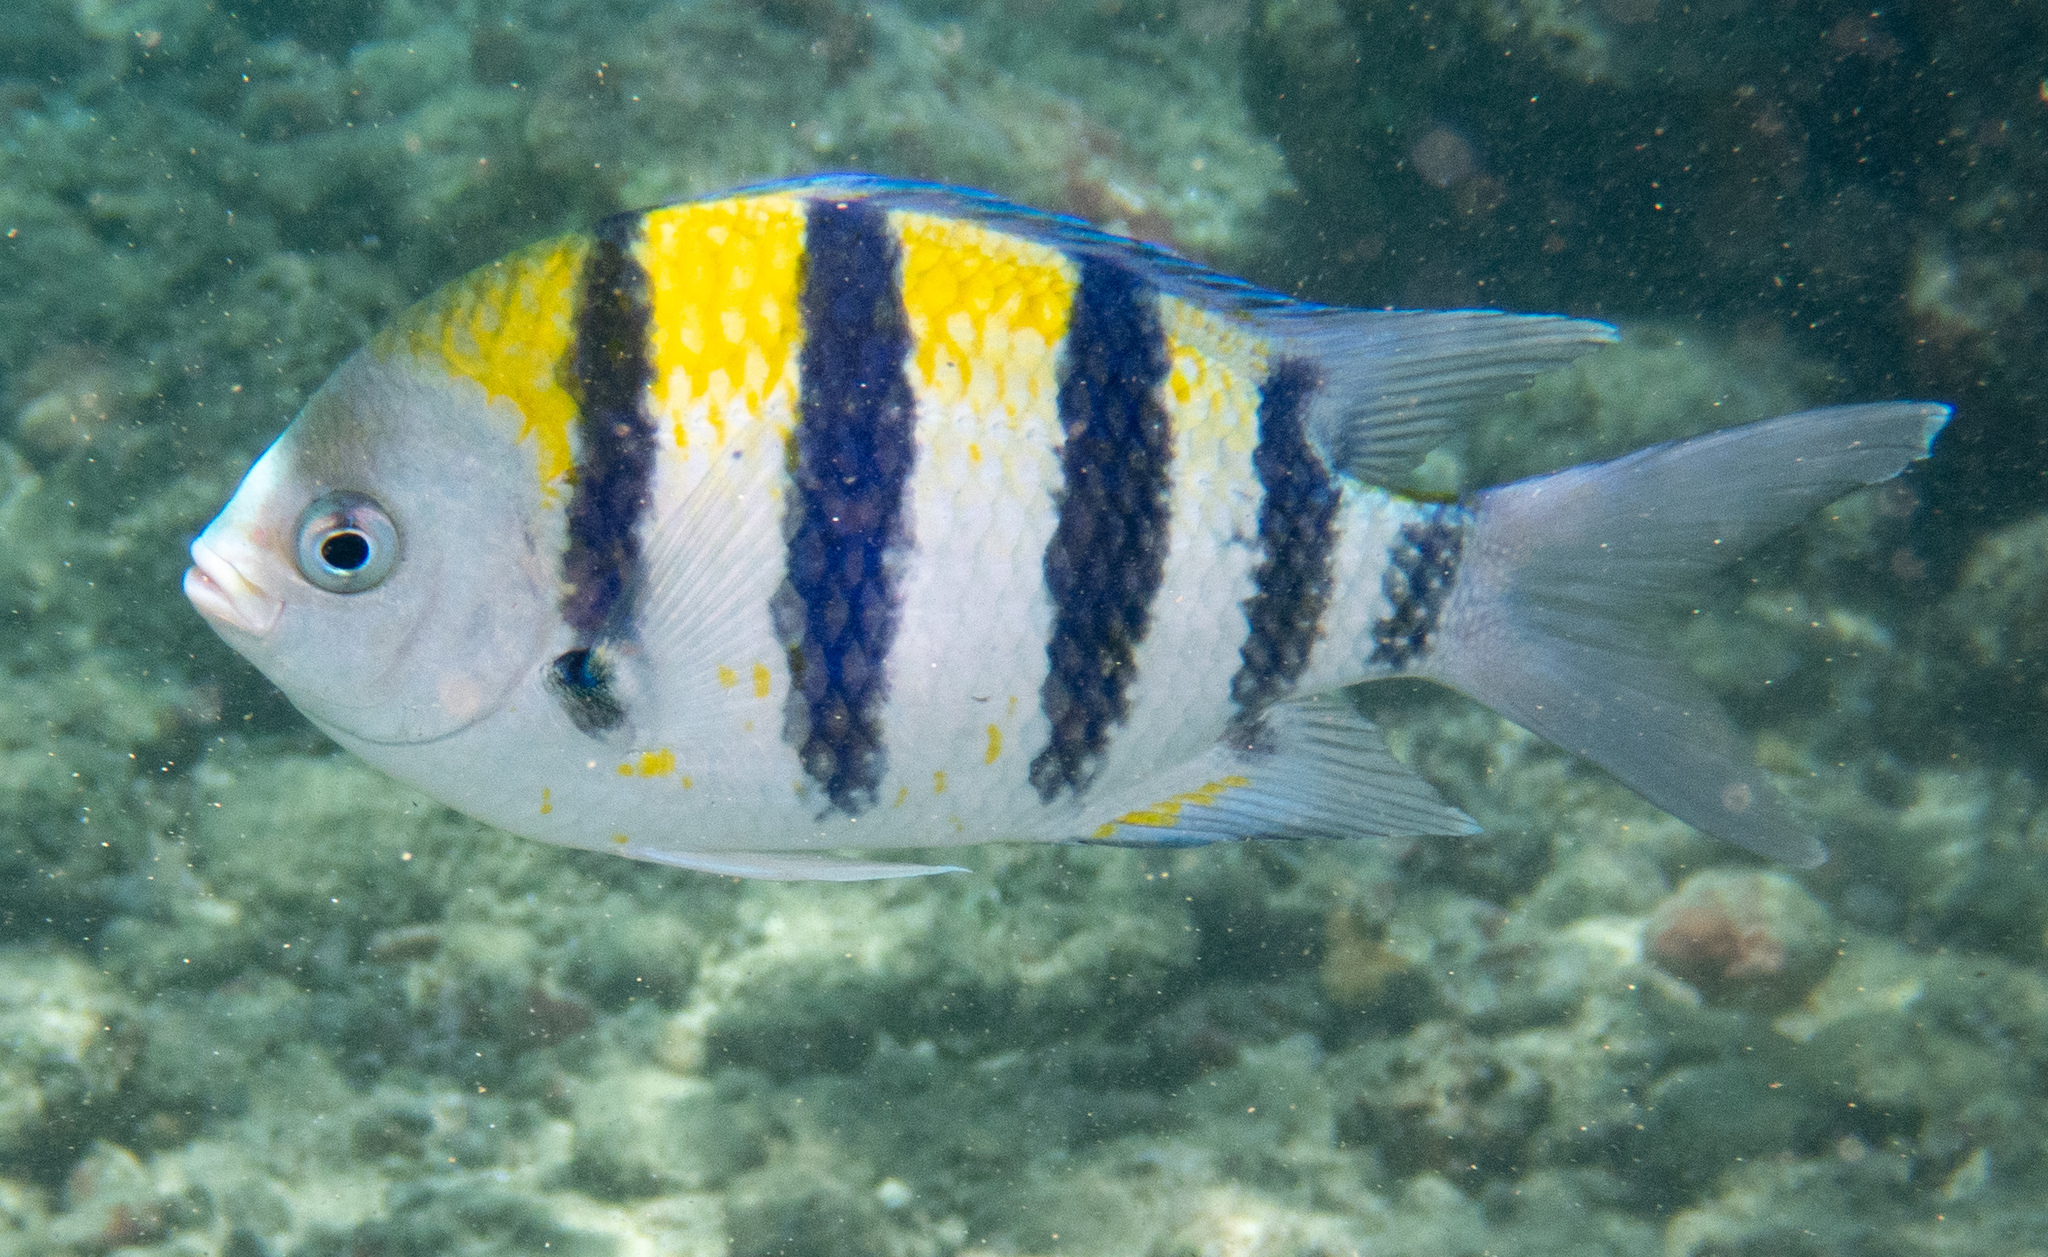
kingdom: Animalia
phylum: Chordata
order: Perciformes
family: Pomacentridae
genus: Abudefduf
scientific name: Abudefduf vaigiensis
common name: Indo-pacific sergeant
